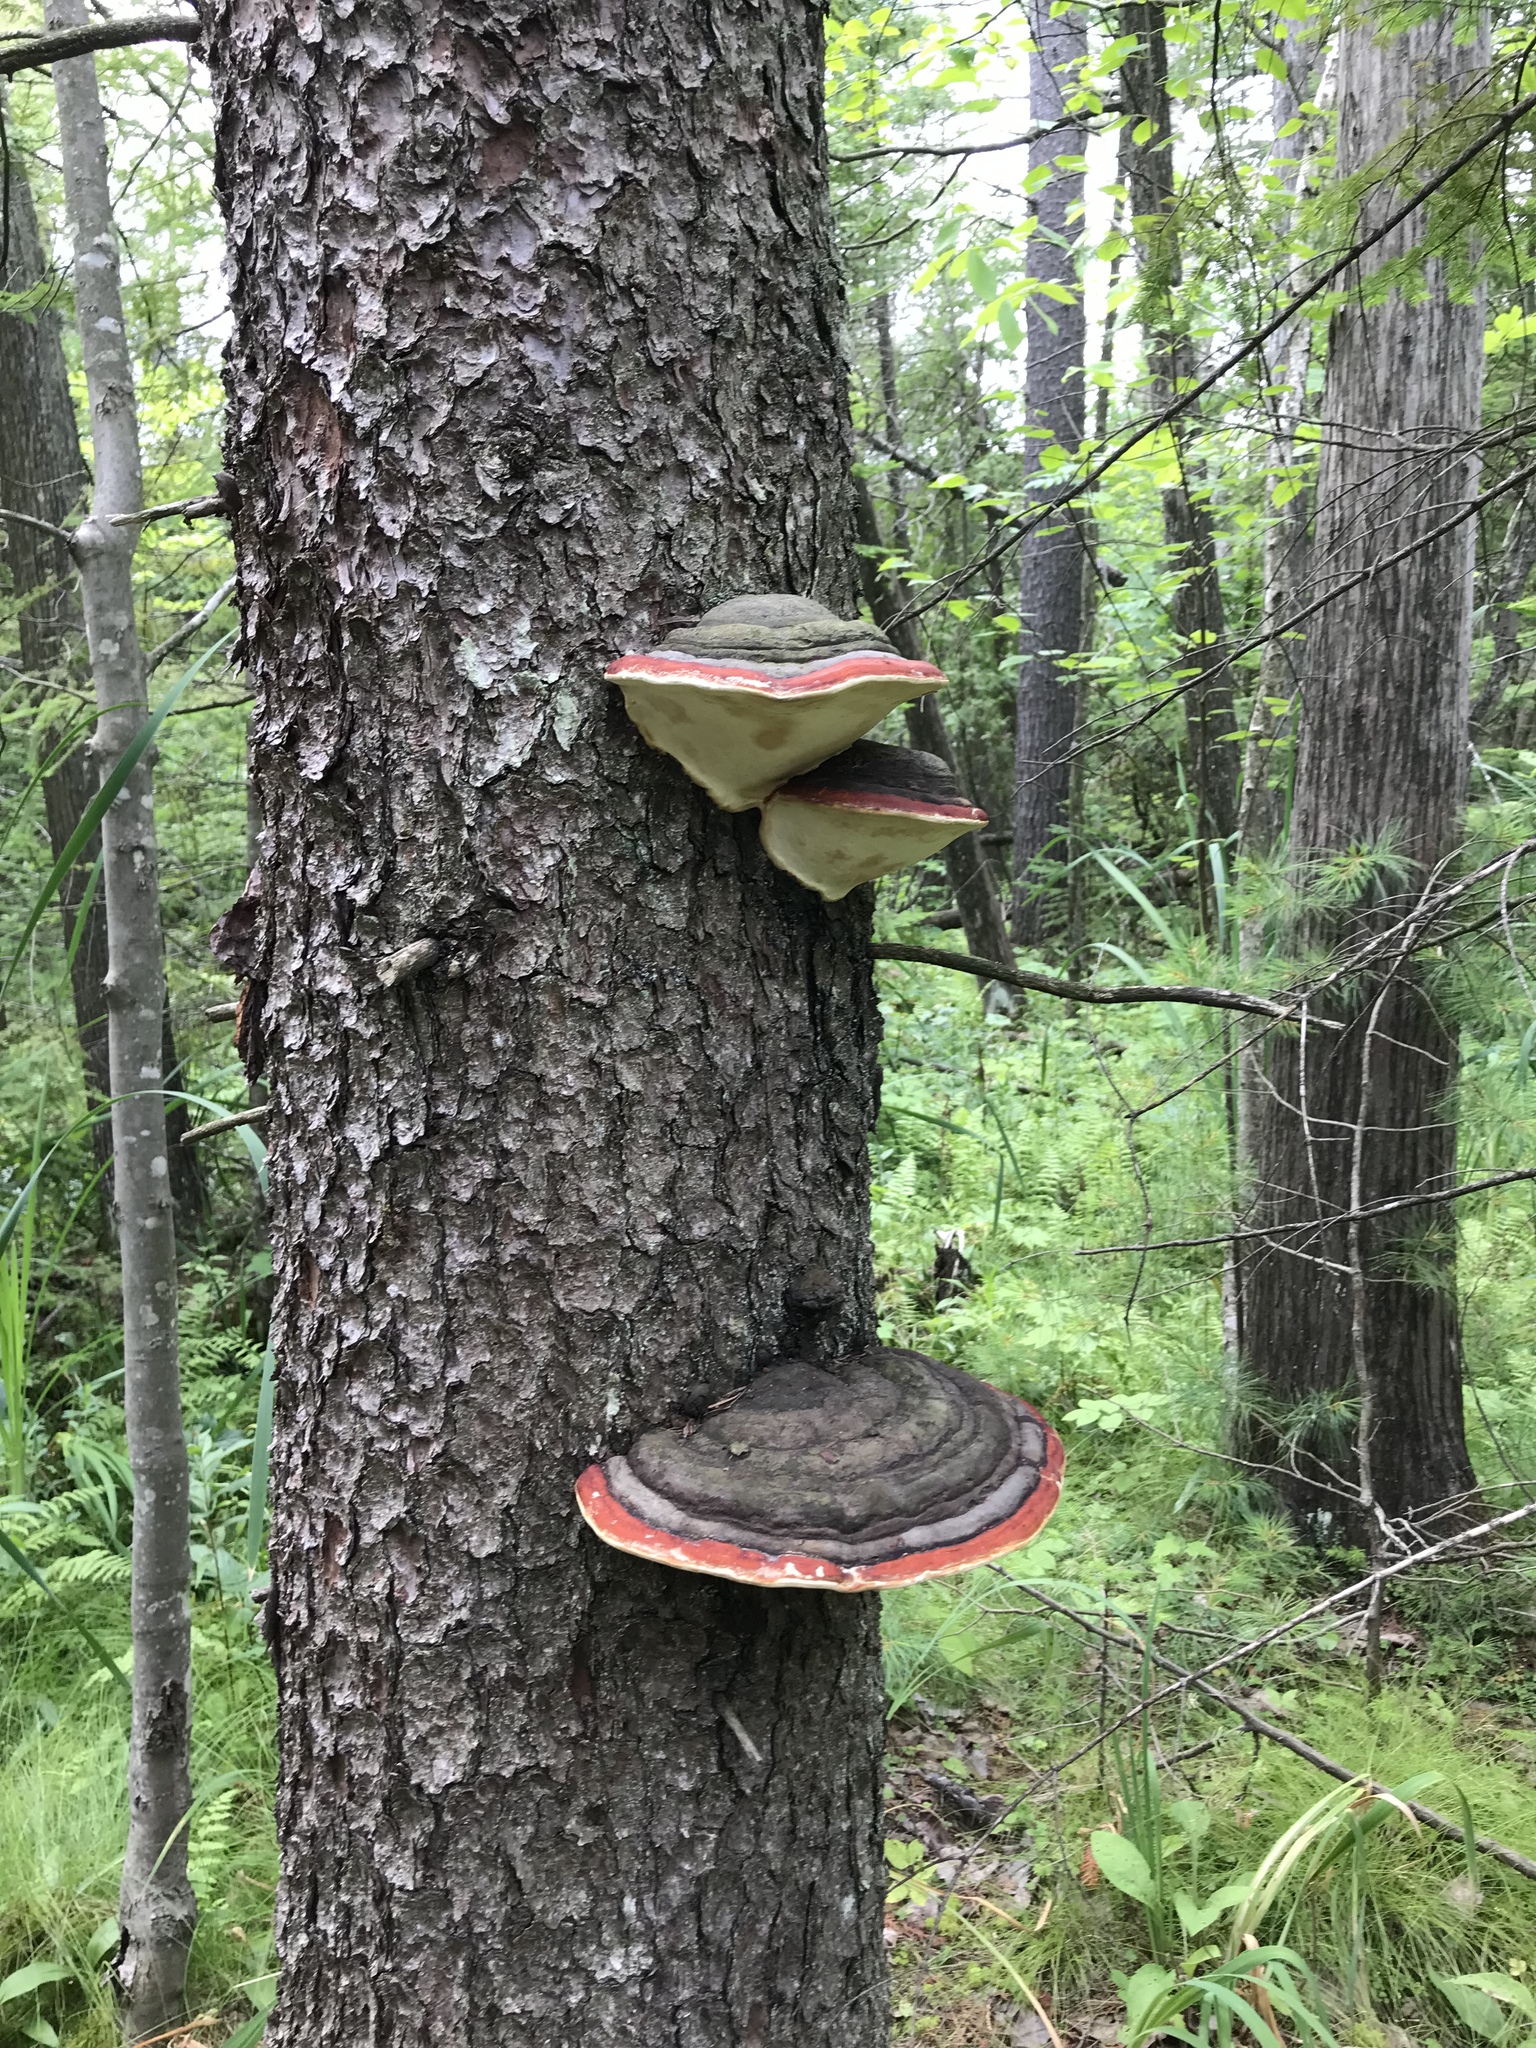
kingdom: Fungi
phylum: Basidiomycota
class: Agaricomycetes
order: Polyporales
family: Fomitopsidaceae
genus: Fomitopsis
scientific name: Fomitopsis mounceae
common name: Northern red belt
